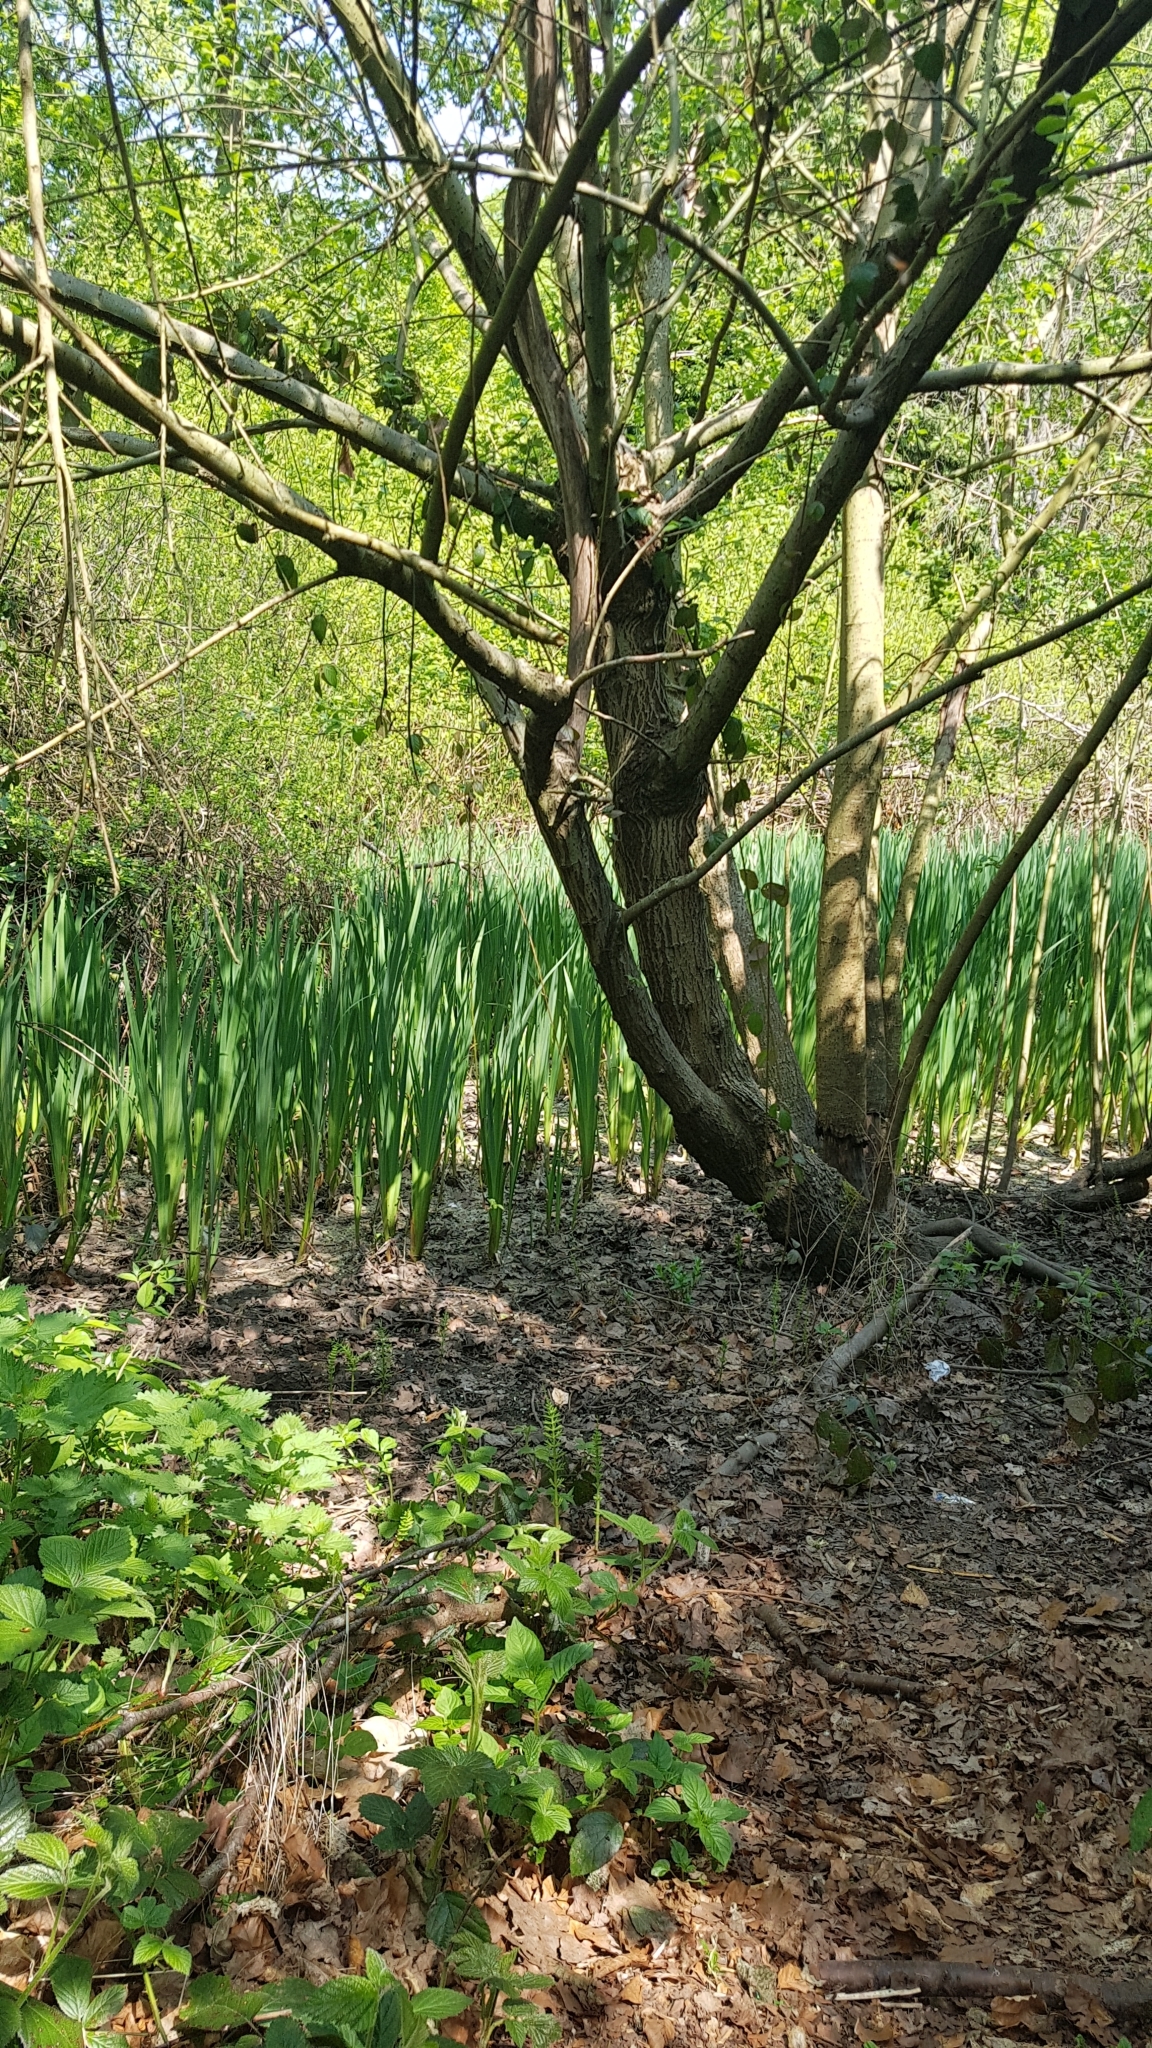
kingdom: Plantae
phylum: Tracheophyta
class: Liliopsida
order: Asparagales
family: Iridaceae
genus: Iris
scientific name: Iris pseudacorus
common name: Yellow flag
